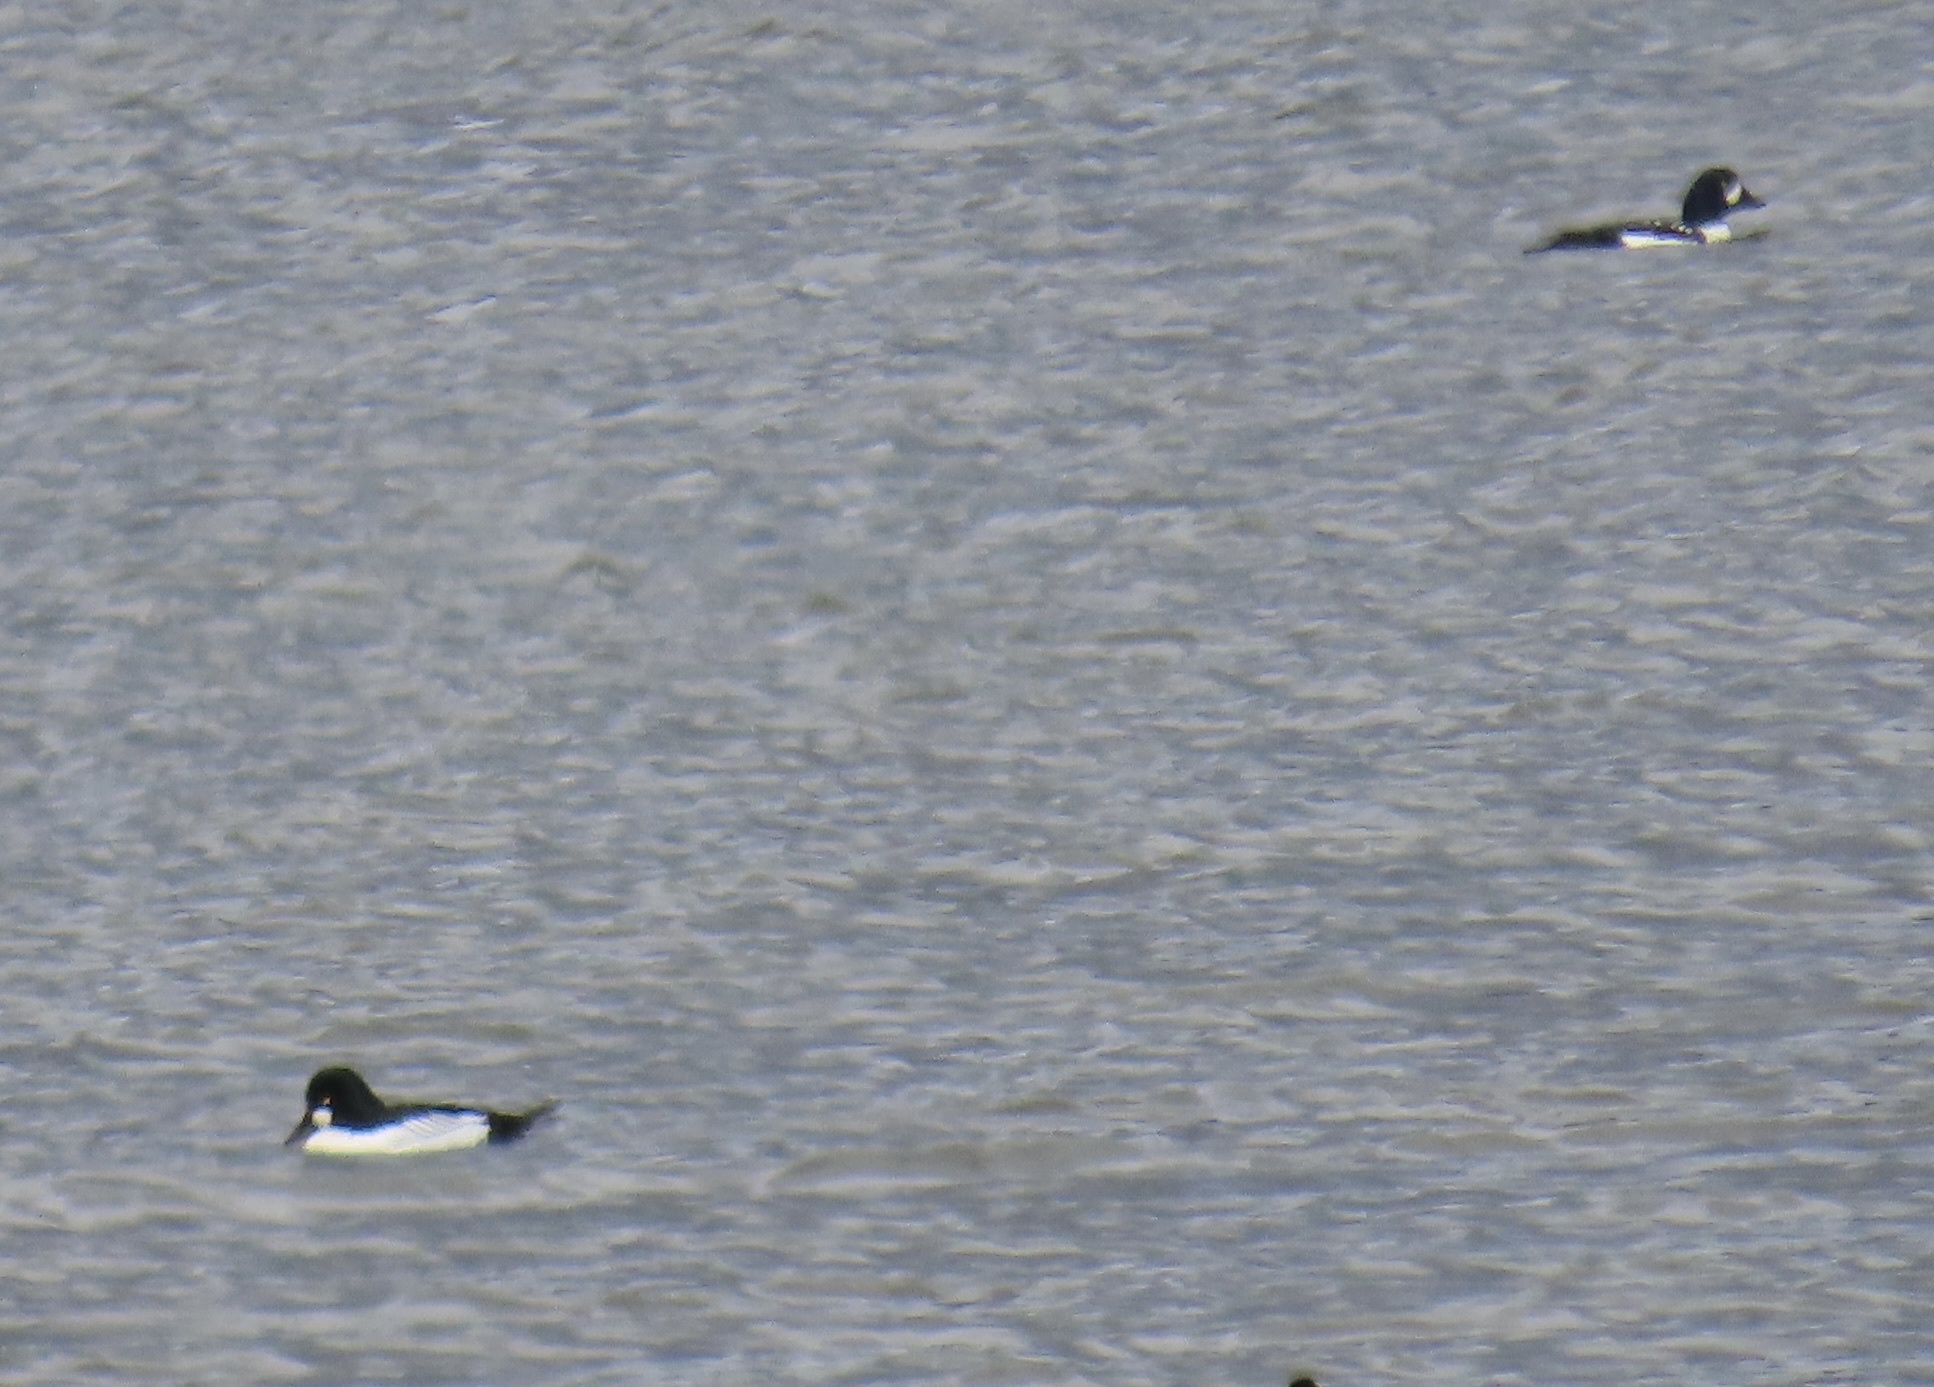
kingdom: Animalia
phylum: Chordata
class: Aves
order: Anseriformes
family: Anatidae
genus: Bucephala
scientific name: Bucephala clangula
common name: Common goldeneye
